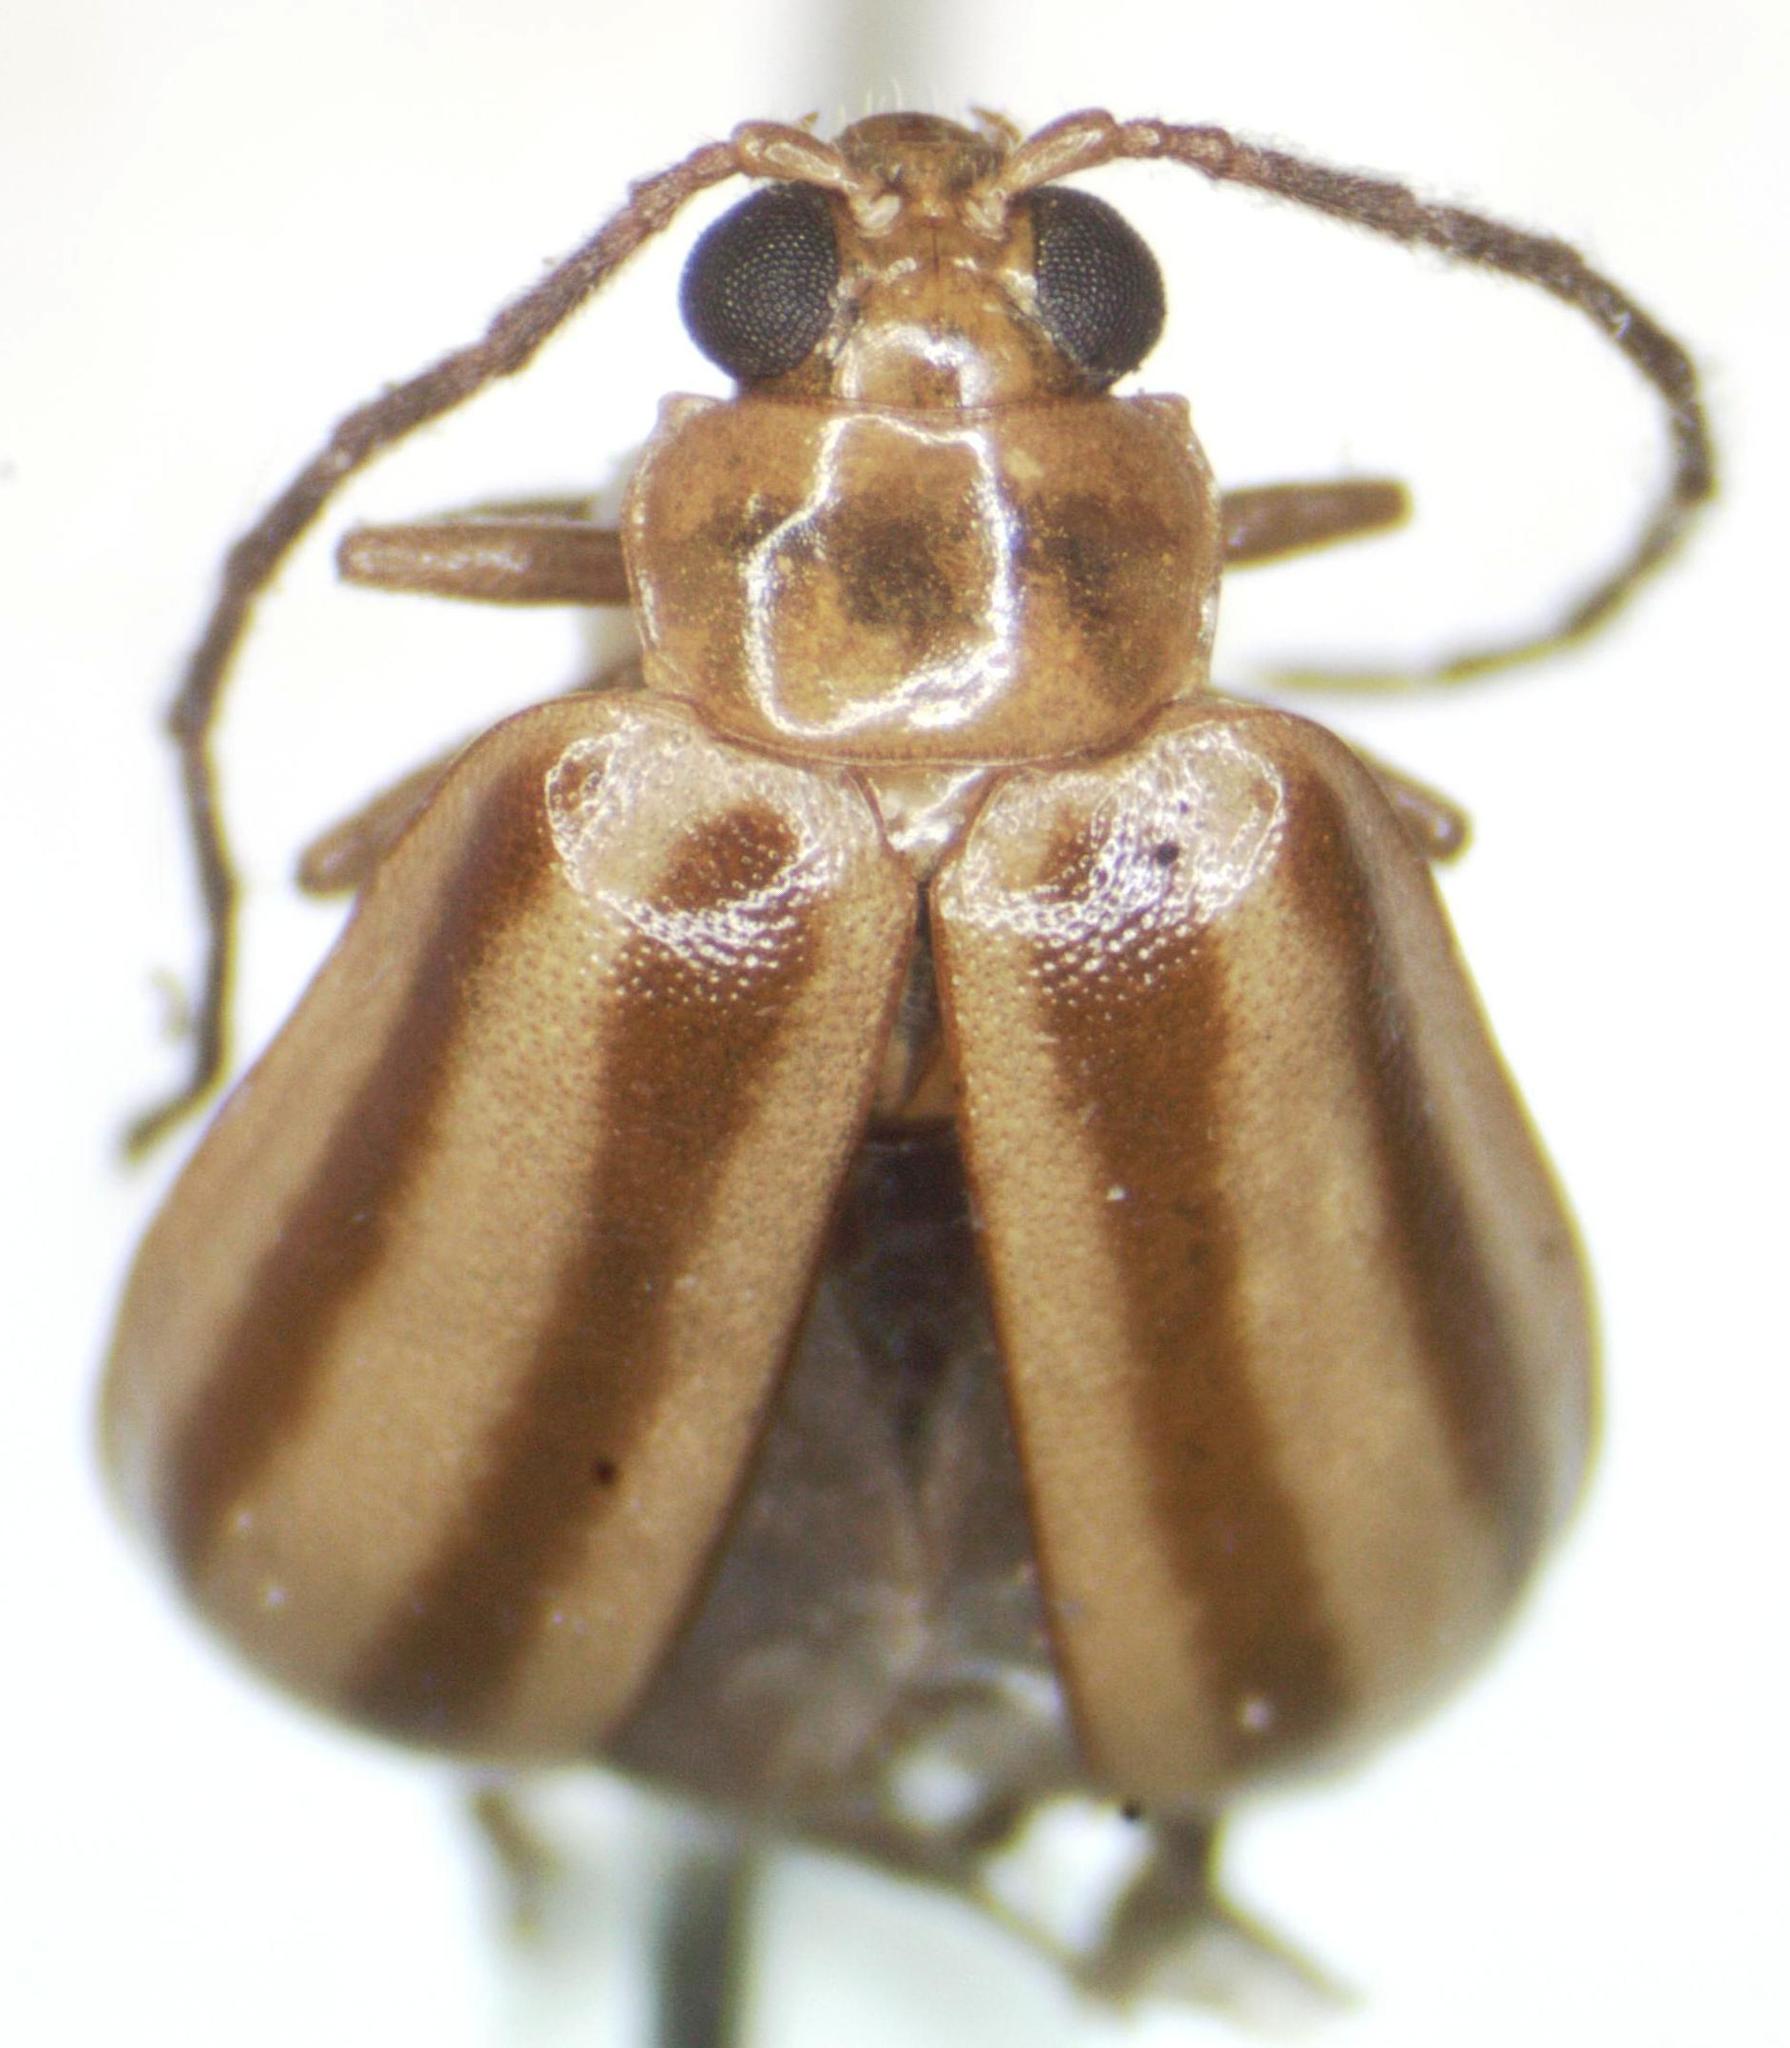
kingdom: Animalia
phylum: Arthropoda
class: Insecta
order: Coleoptera
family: Chrysomelidae
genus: Pyesia
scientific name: Pyesia detrita
